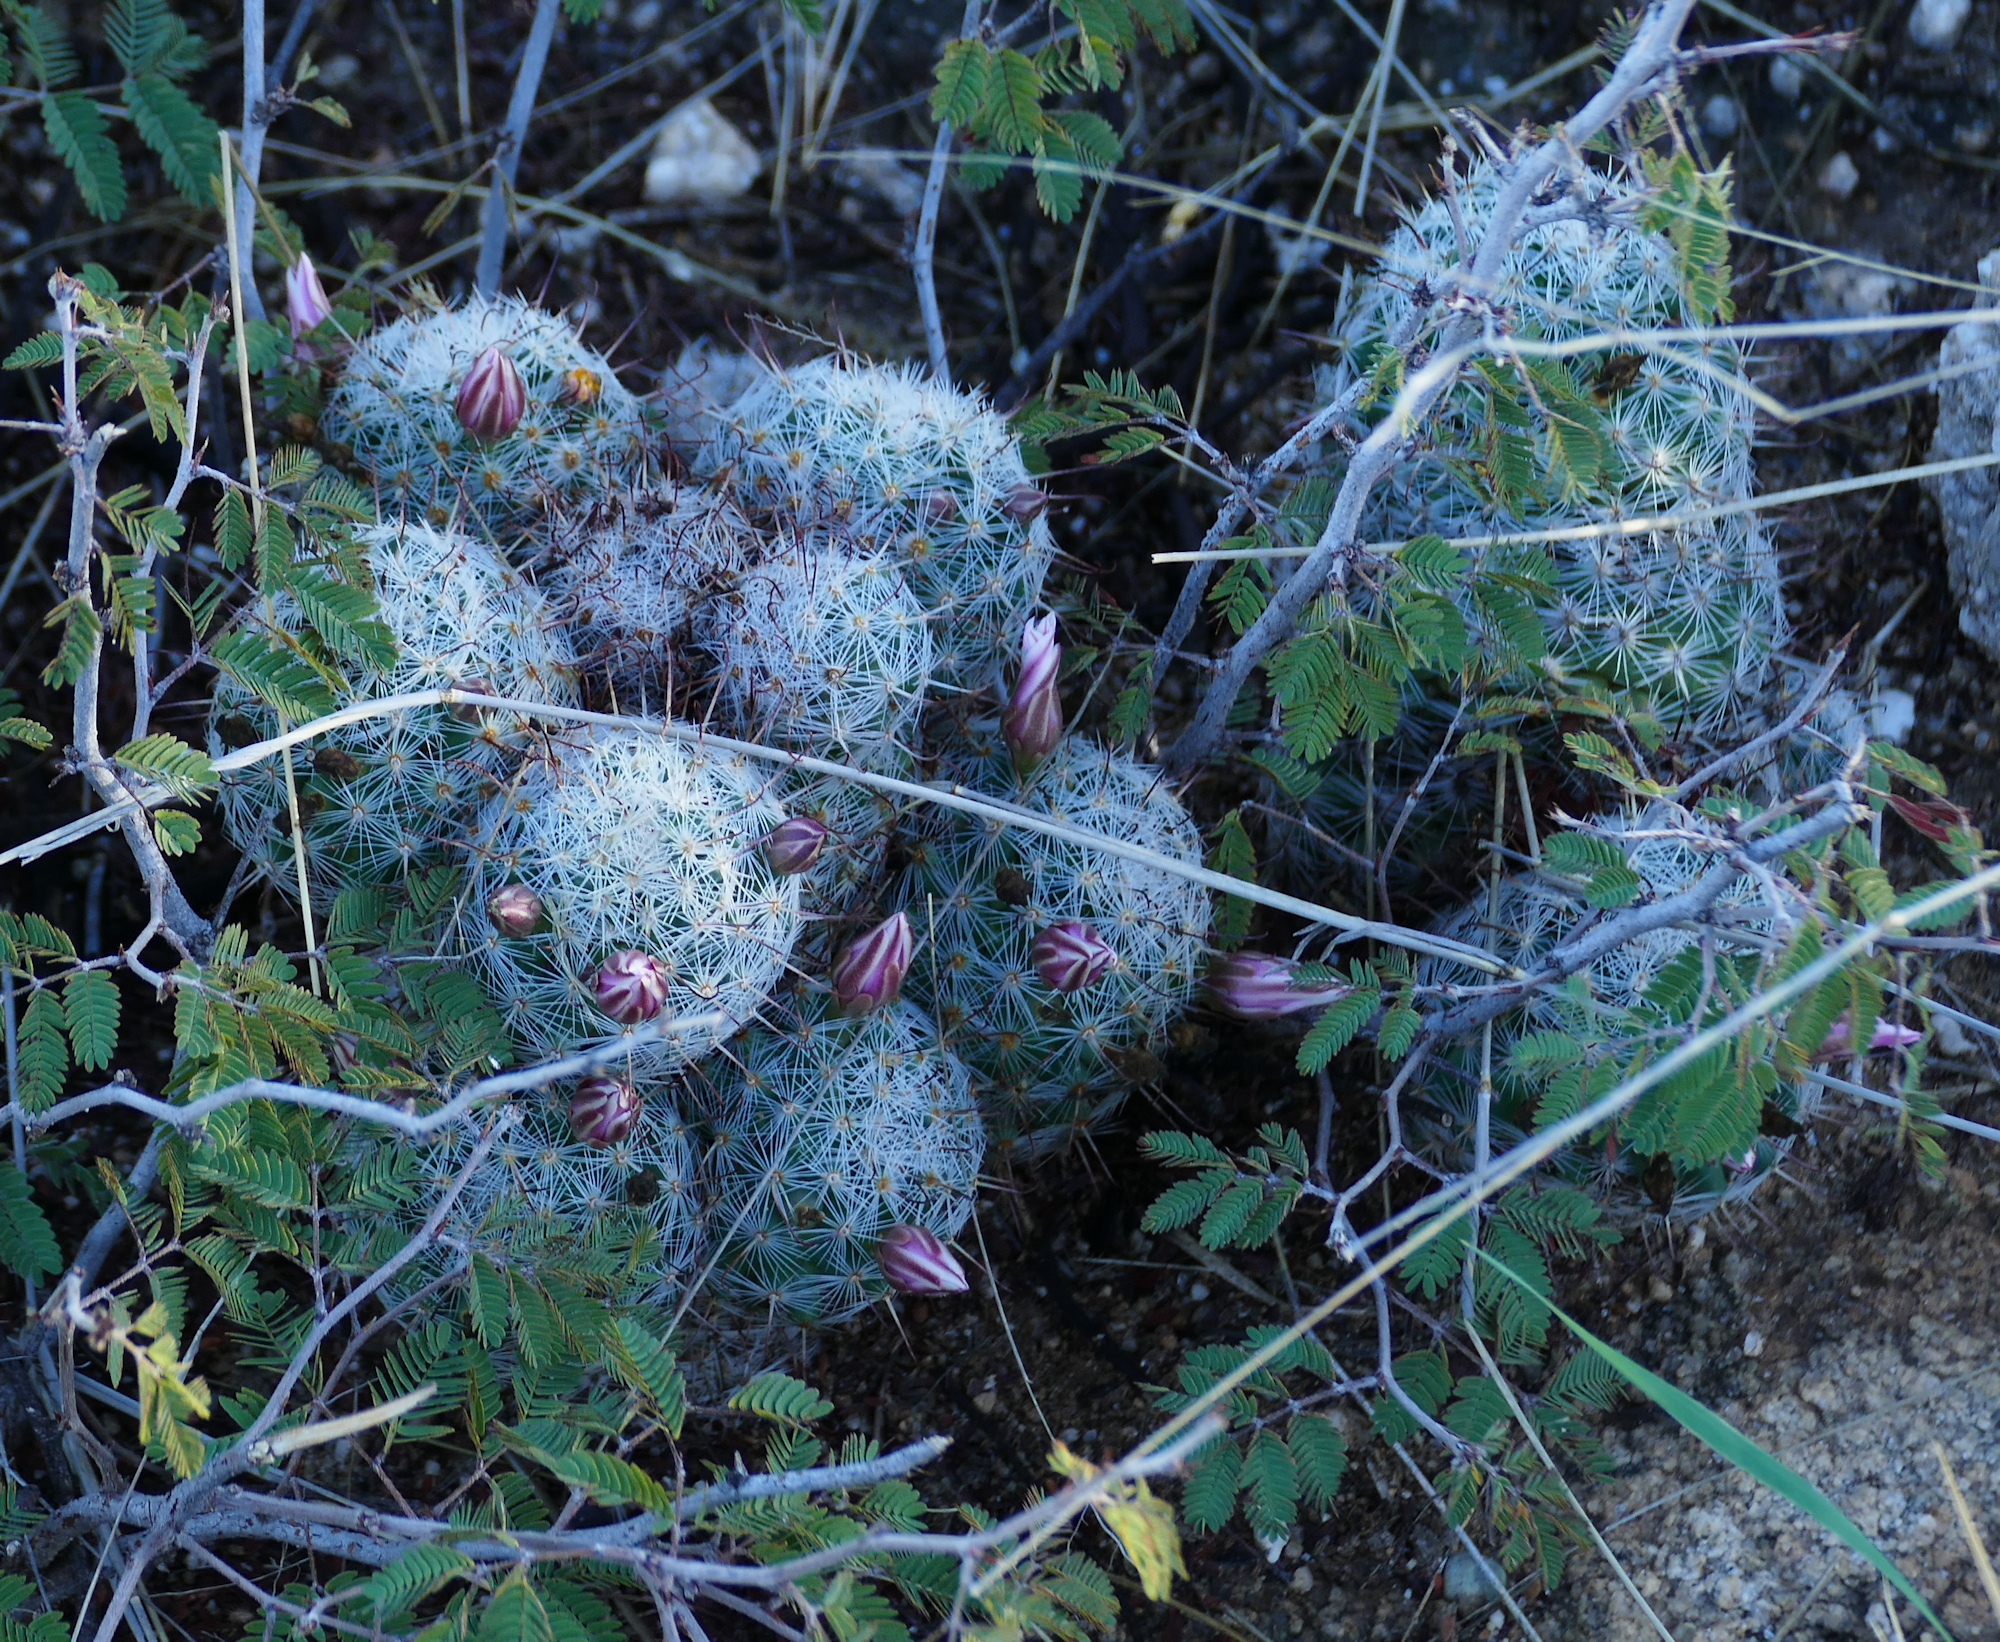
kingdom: Plantae
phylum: Tracheophyta
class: Magnoliopsida
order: Caryophyllales
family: Cactaceae
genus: Cochemiea
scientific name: Cochemiea grahamii
